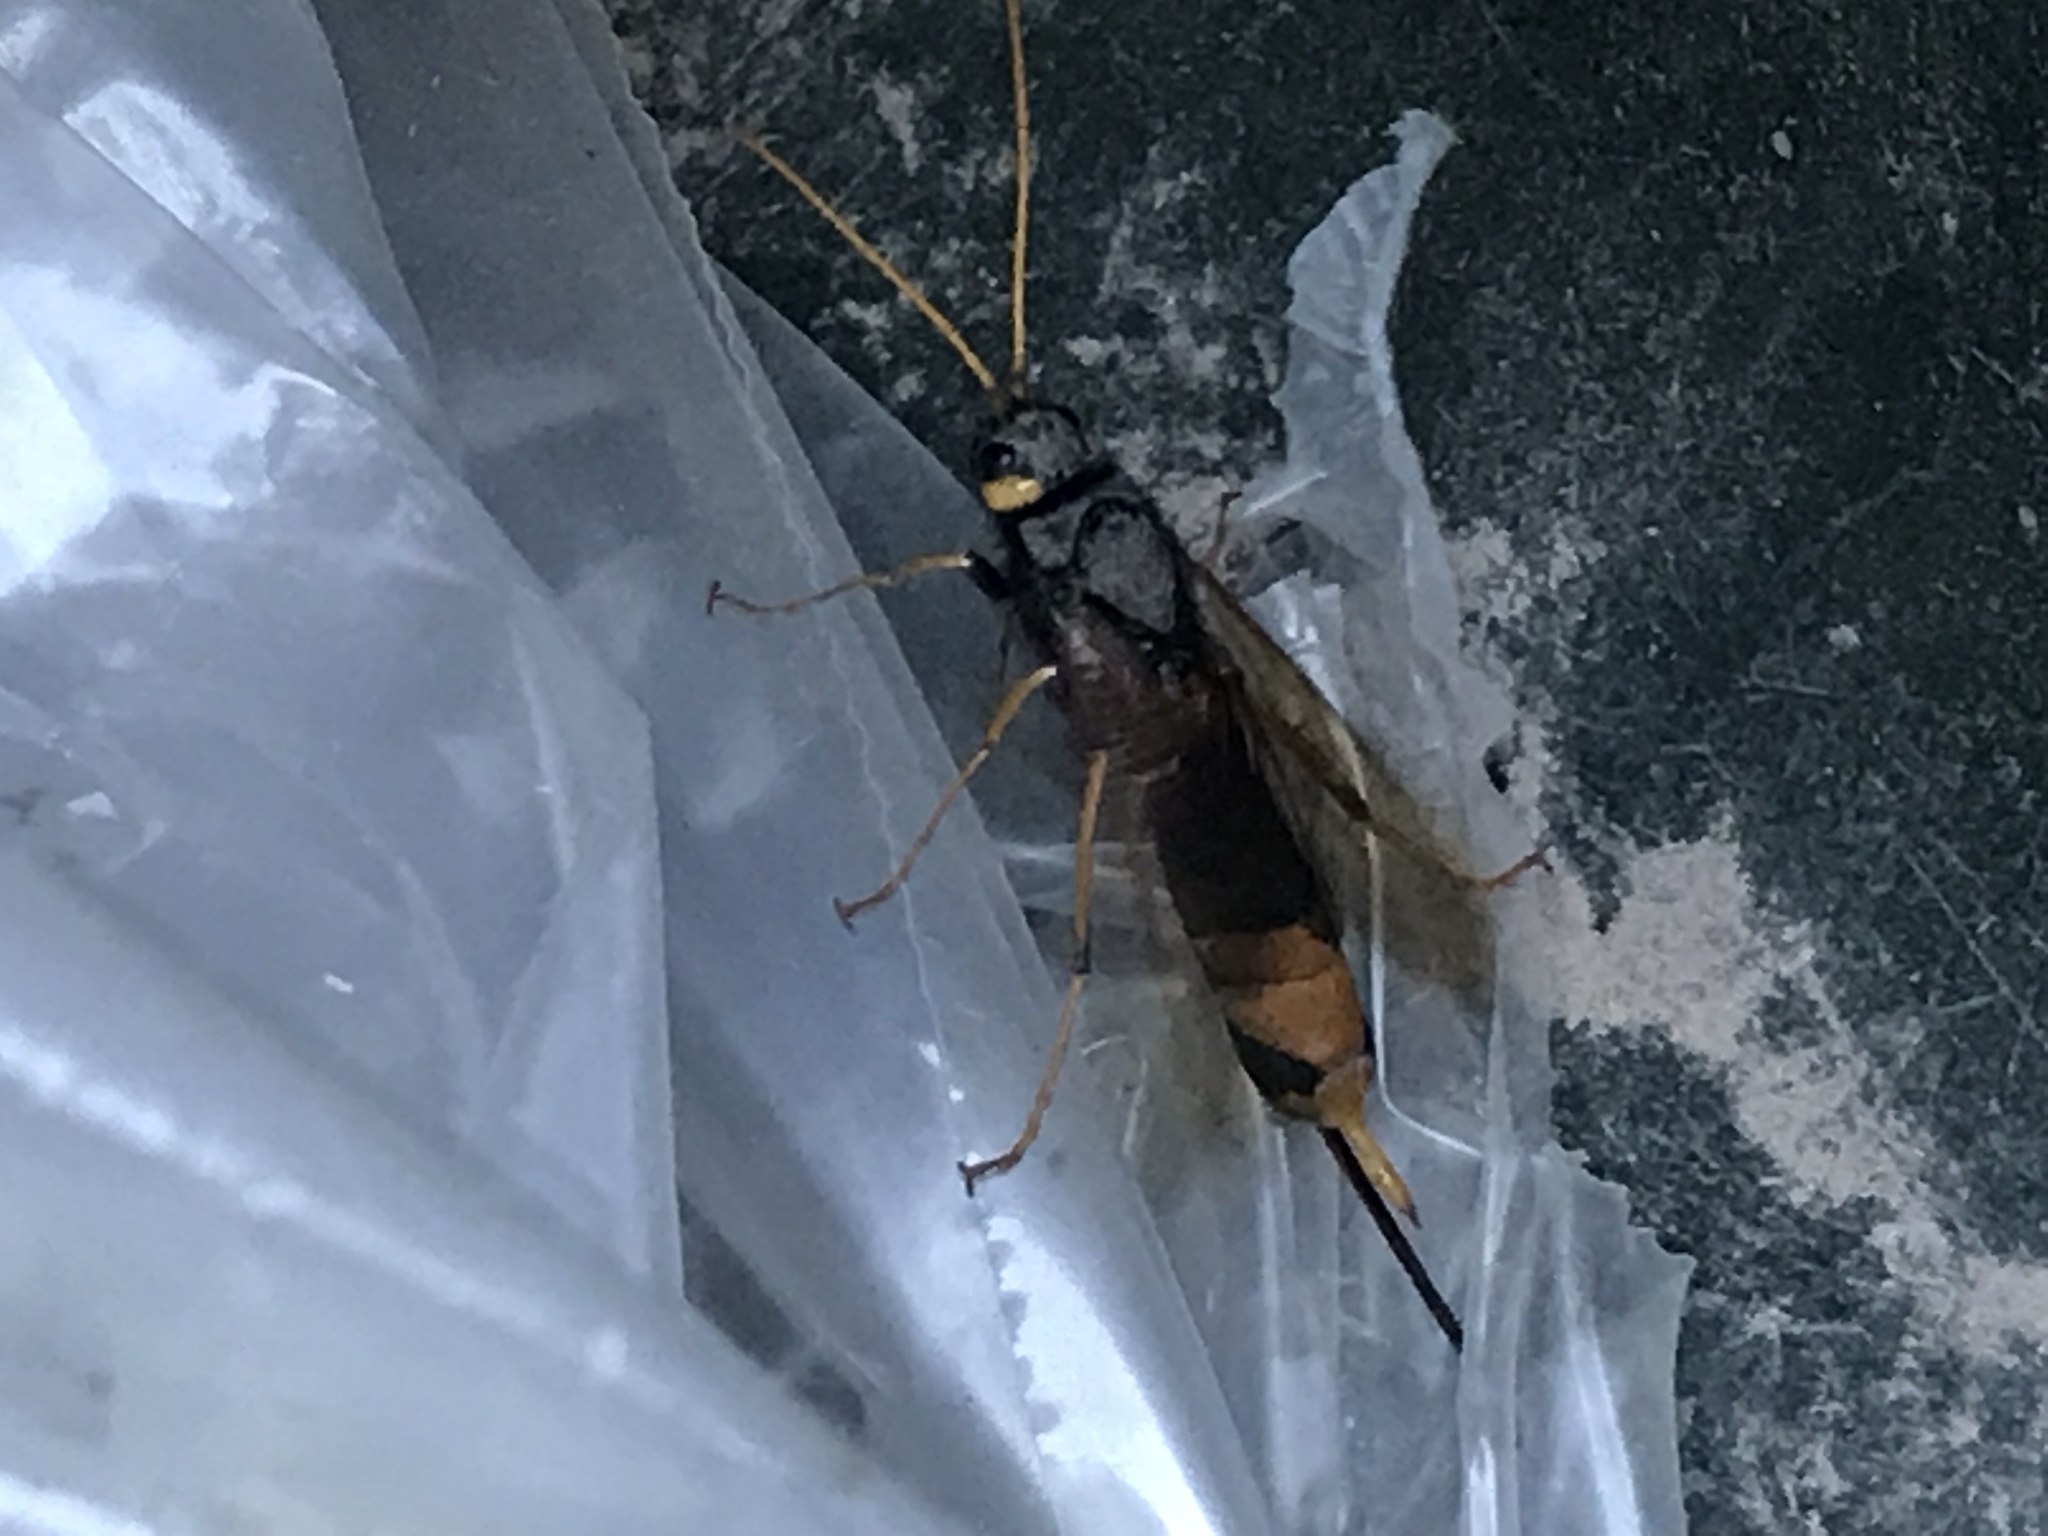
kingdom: Animalia
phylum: Arthropoda
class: Insecta
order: Hymenoptera
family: Siricidae
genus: Urocerus
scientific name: Urocerus gigas
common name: Giant woodwasp
